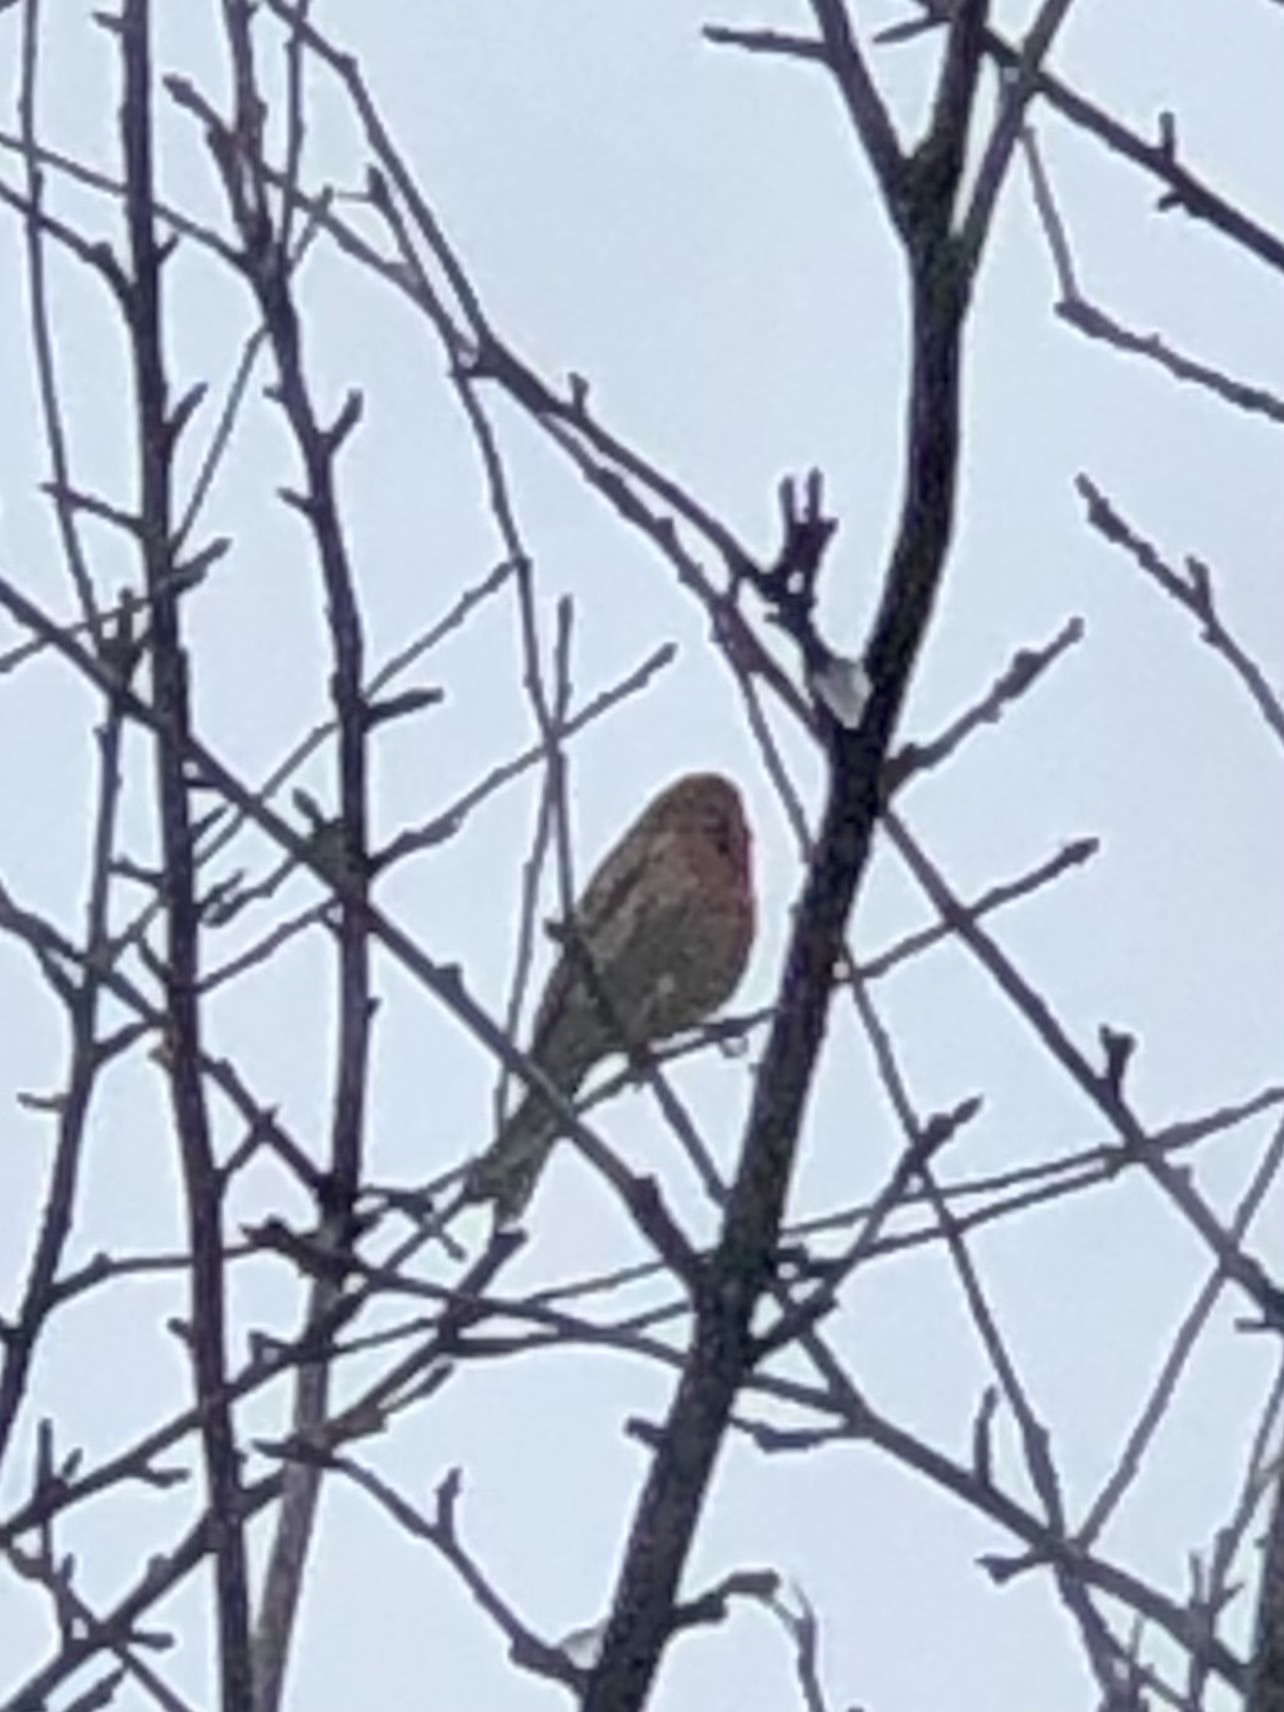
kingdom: Animalia
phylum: Chordata
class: Aves
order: Passeriformes
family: Fringillidae
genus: Haemorhous
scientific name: Haemorhous mexicanus
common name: House finch
